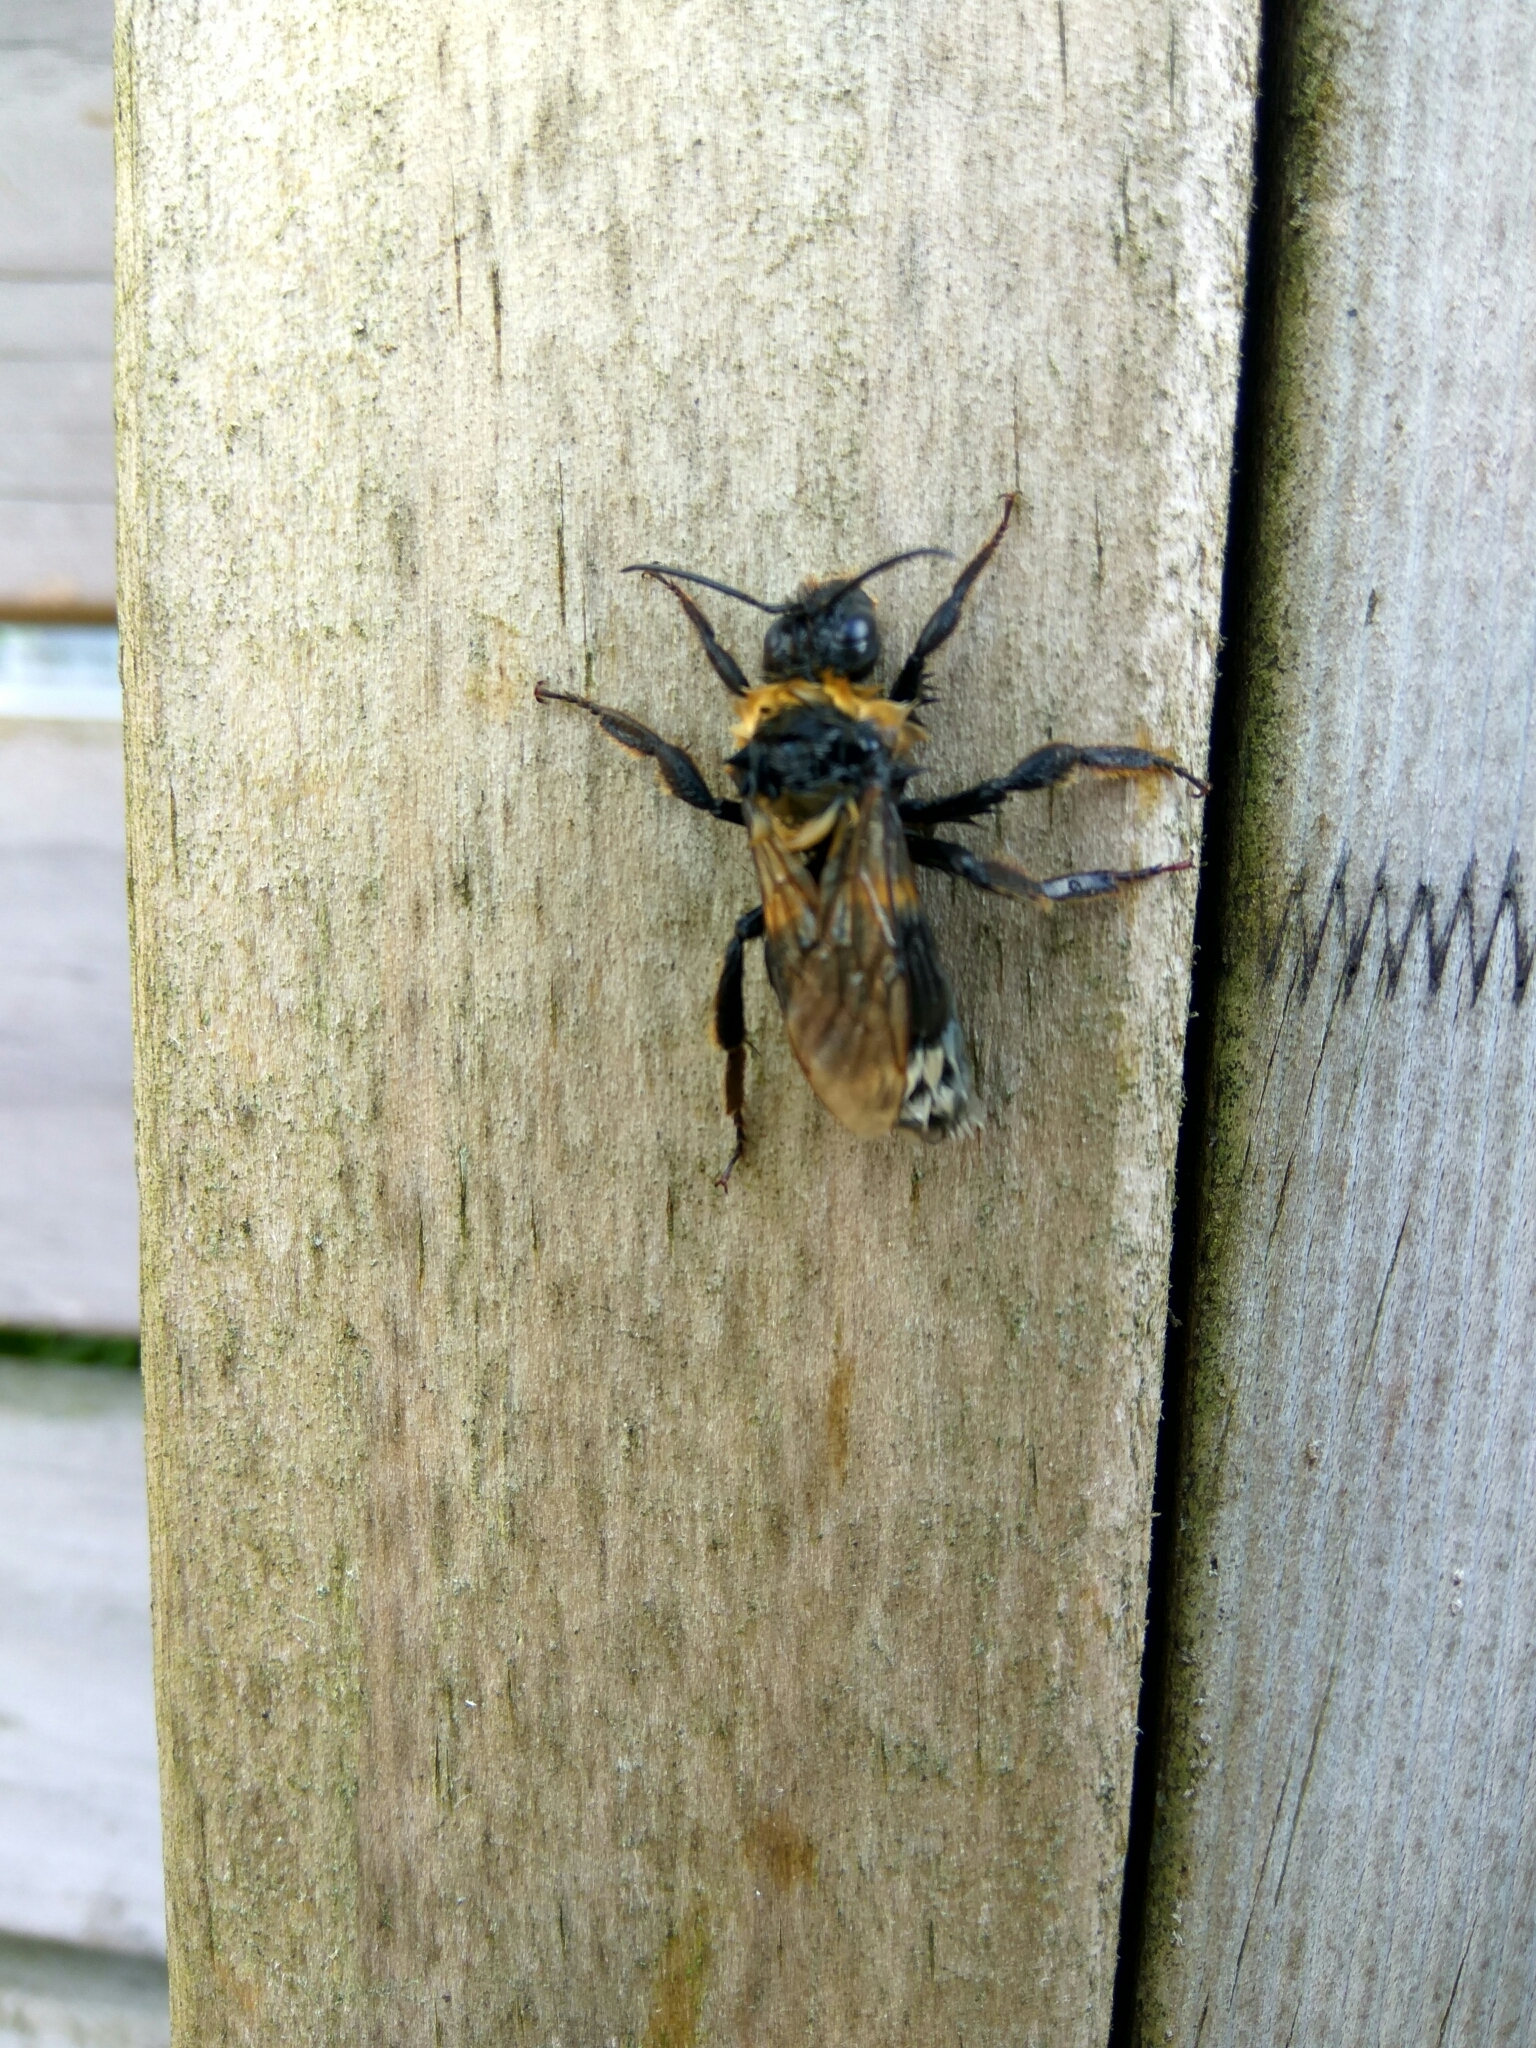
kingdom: Animalia
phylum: Arthropoda
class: Insecta
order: Hymenoptera
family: Apidae
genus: Bombus
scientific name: Bombus ruderatus
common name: Large garden bumblebee
